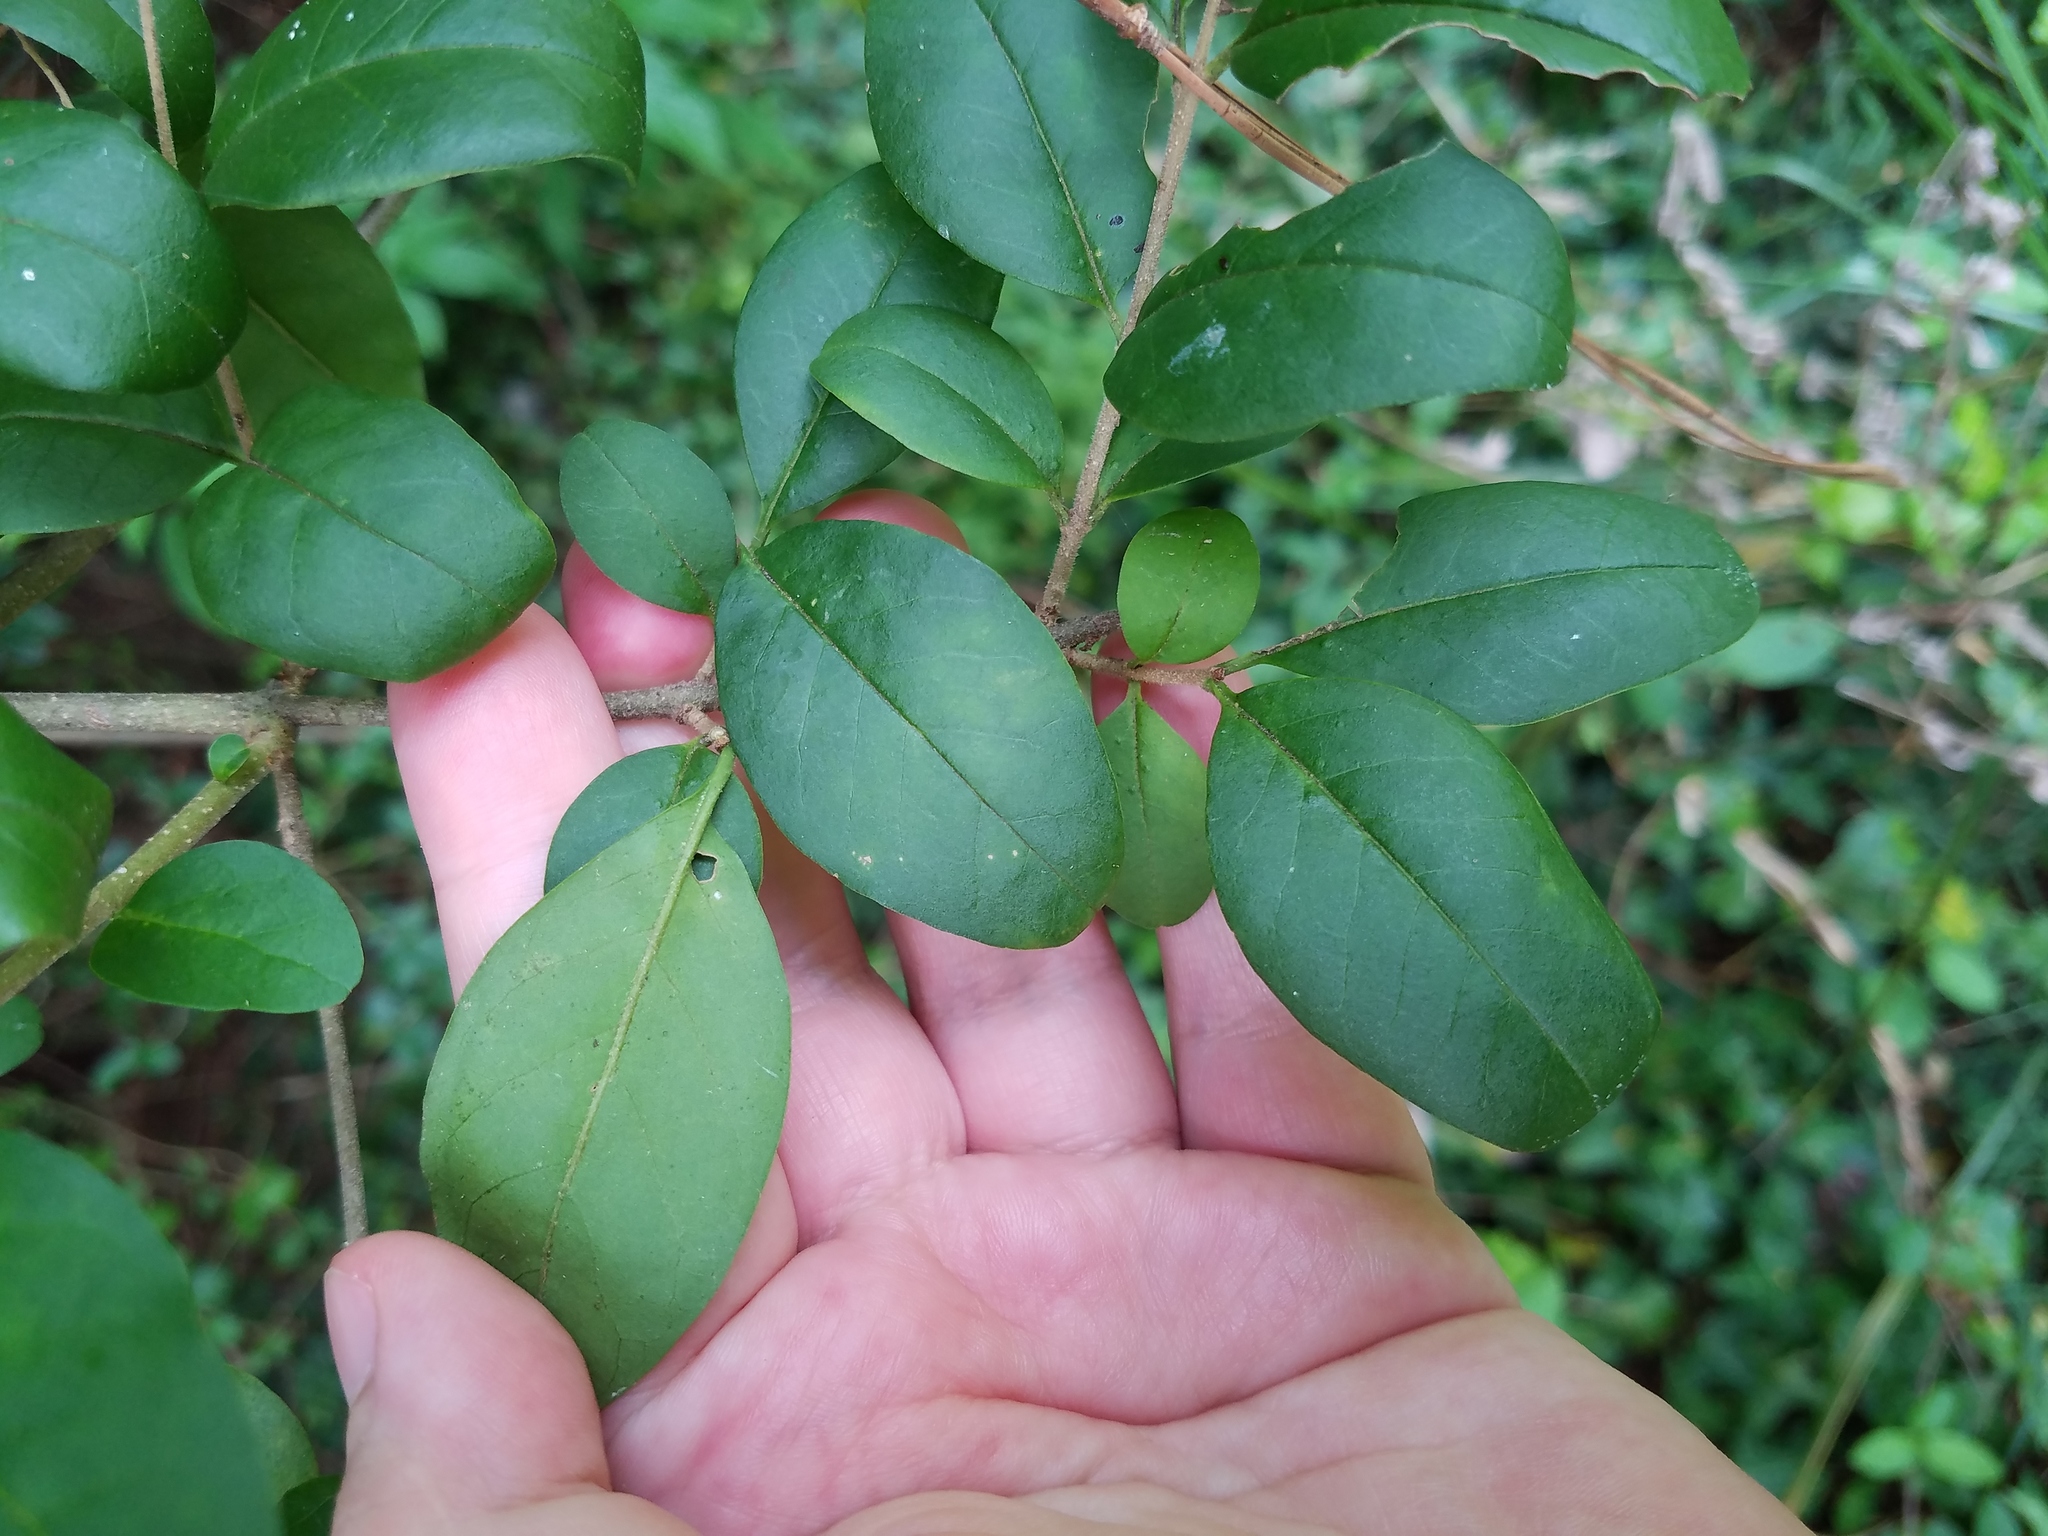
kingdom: Plantae
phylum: Tracheophyta
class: Magnoliopsida
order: Lamiales
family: Oleaceae
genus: Ligustrum
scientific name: Ligustrum sinense
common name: Chinese privet
